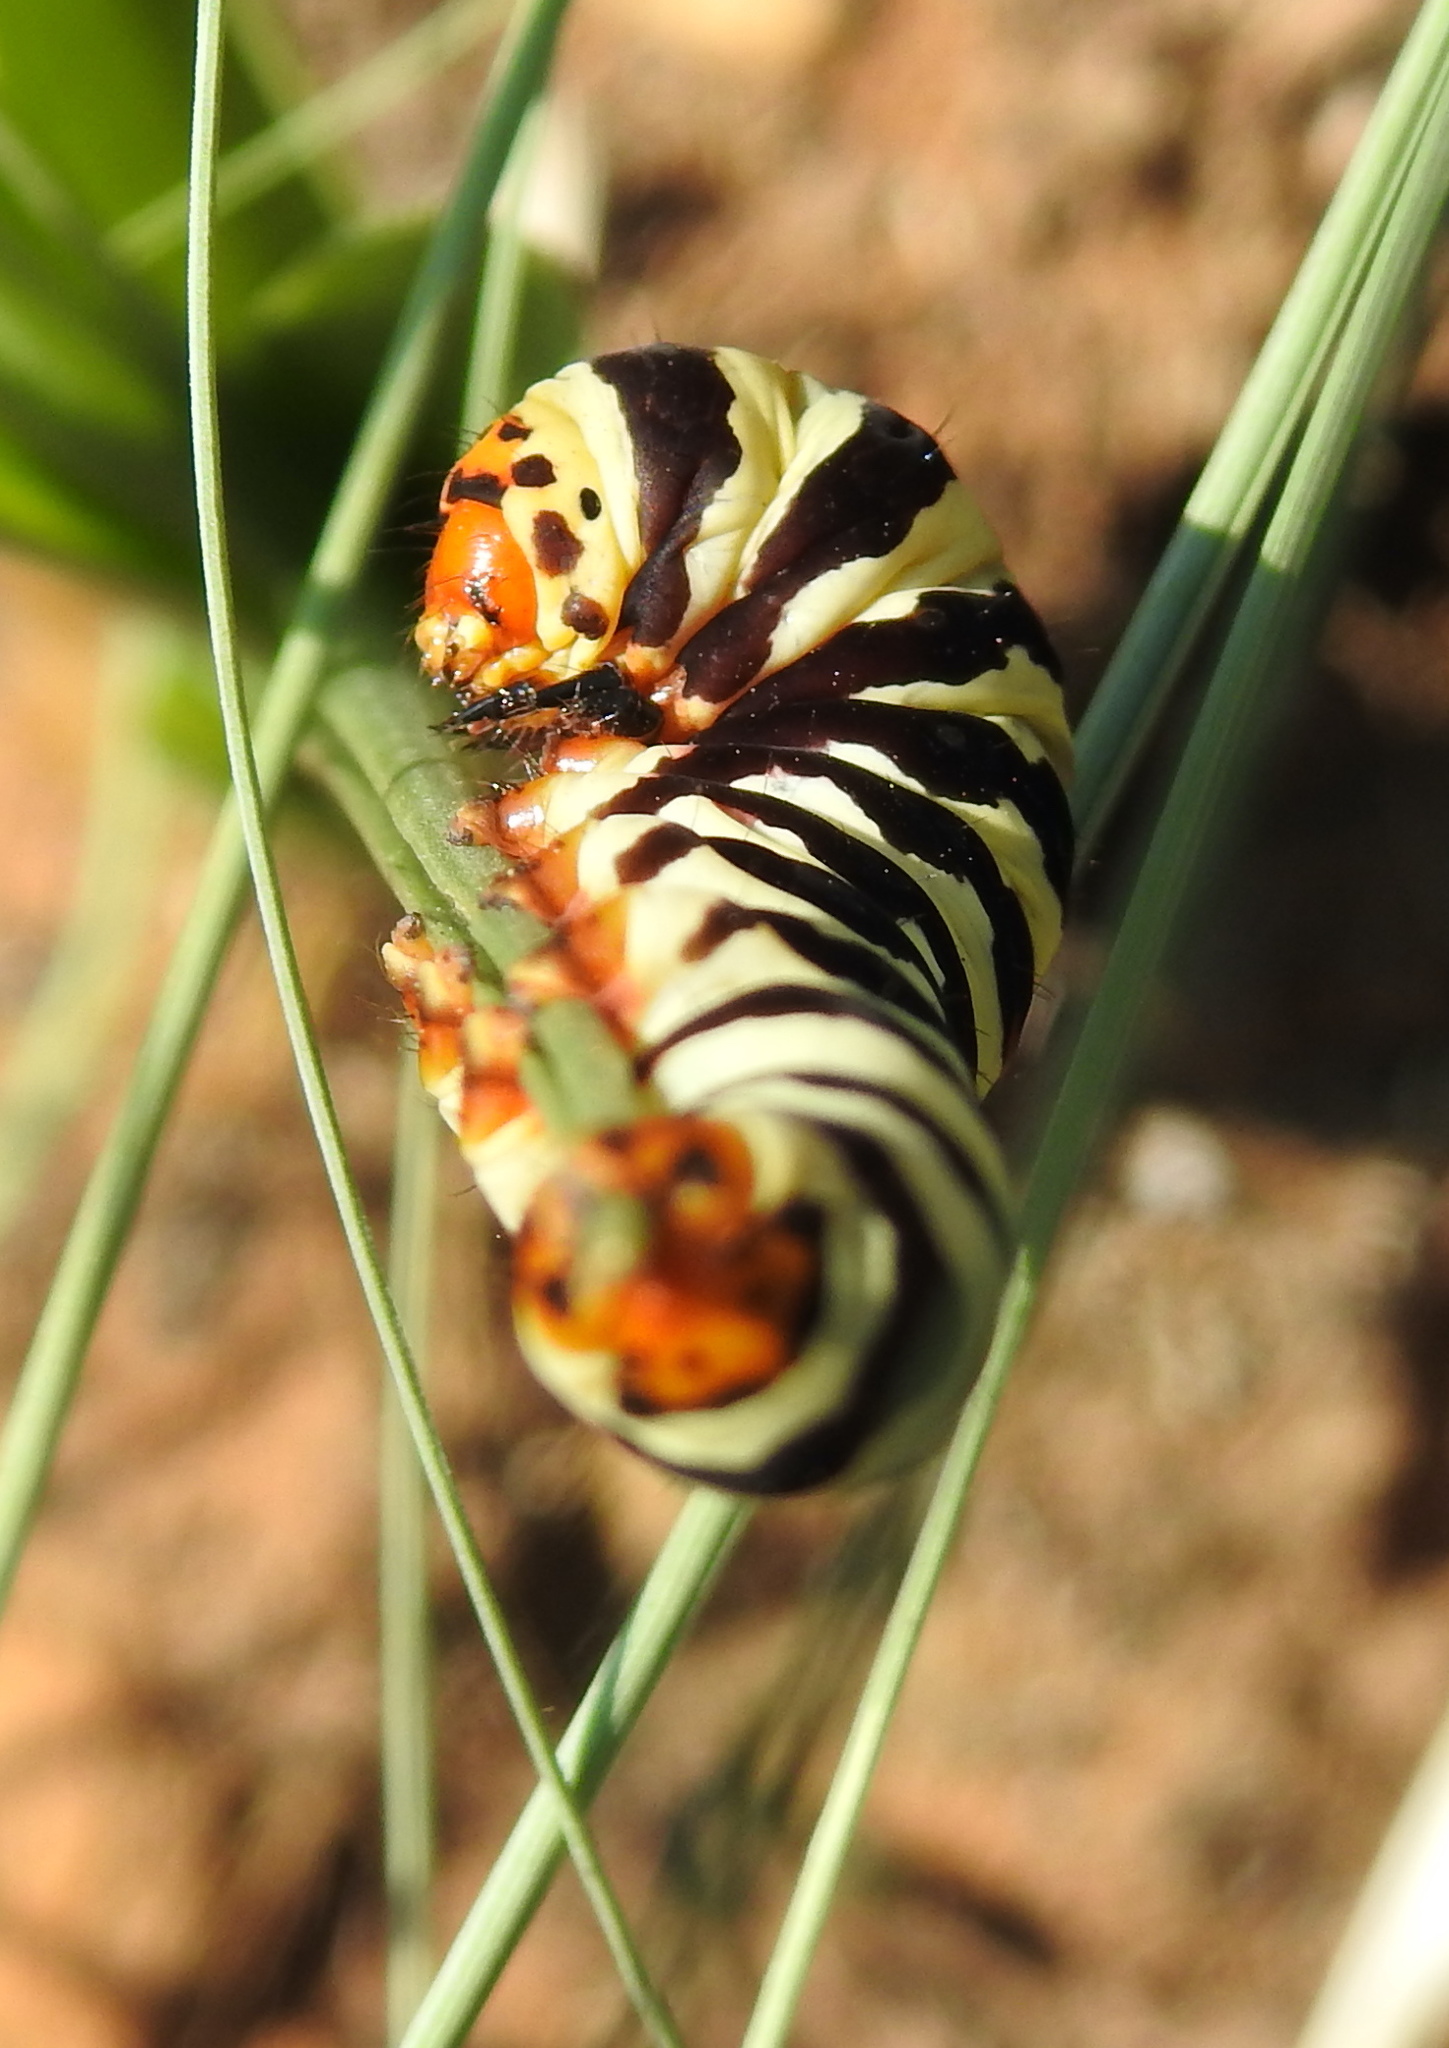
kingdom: Animalia
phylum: Arthropoda
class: Insecta
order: Lepidoptera
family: Noctuidae
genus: Diaphone
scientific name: Diaphone eumela
